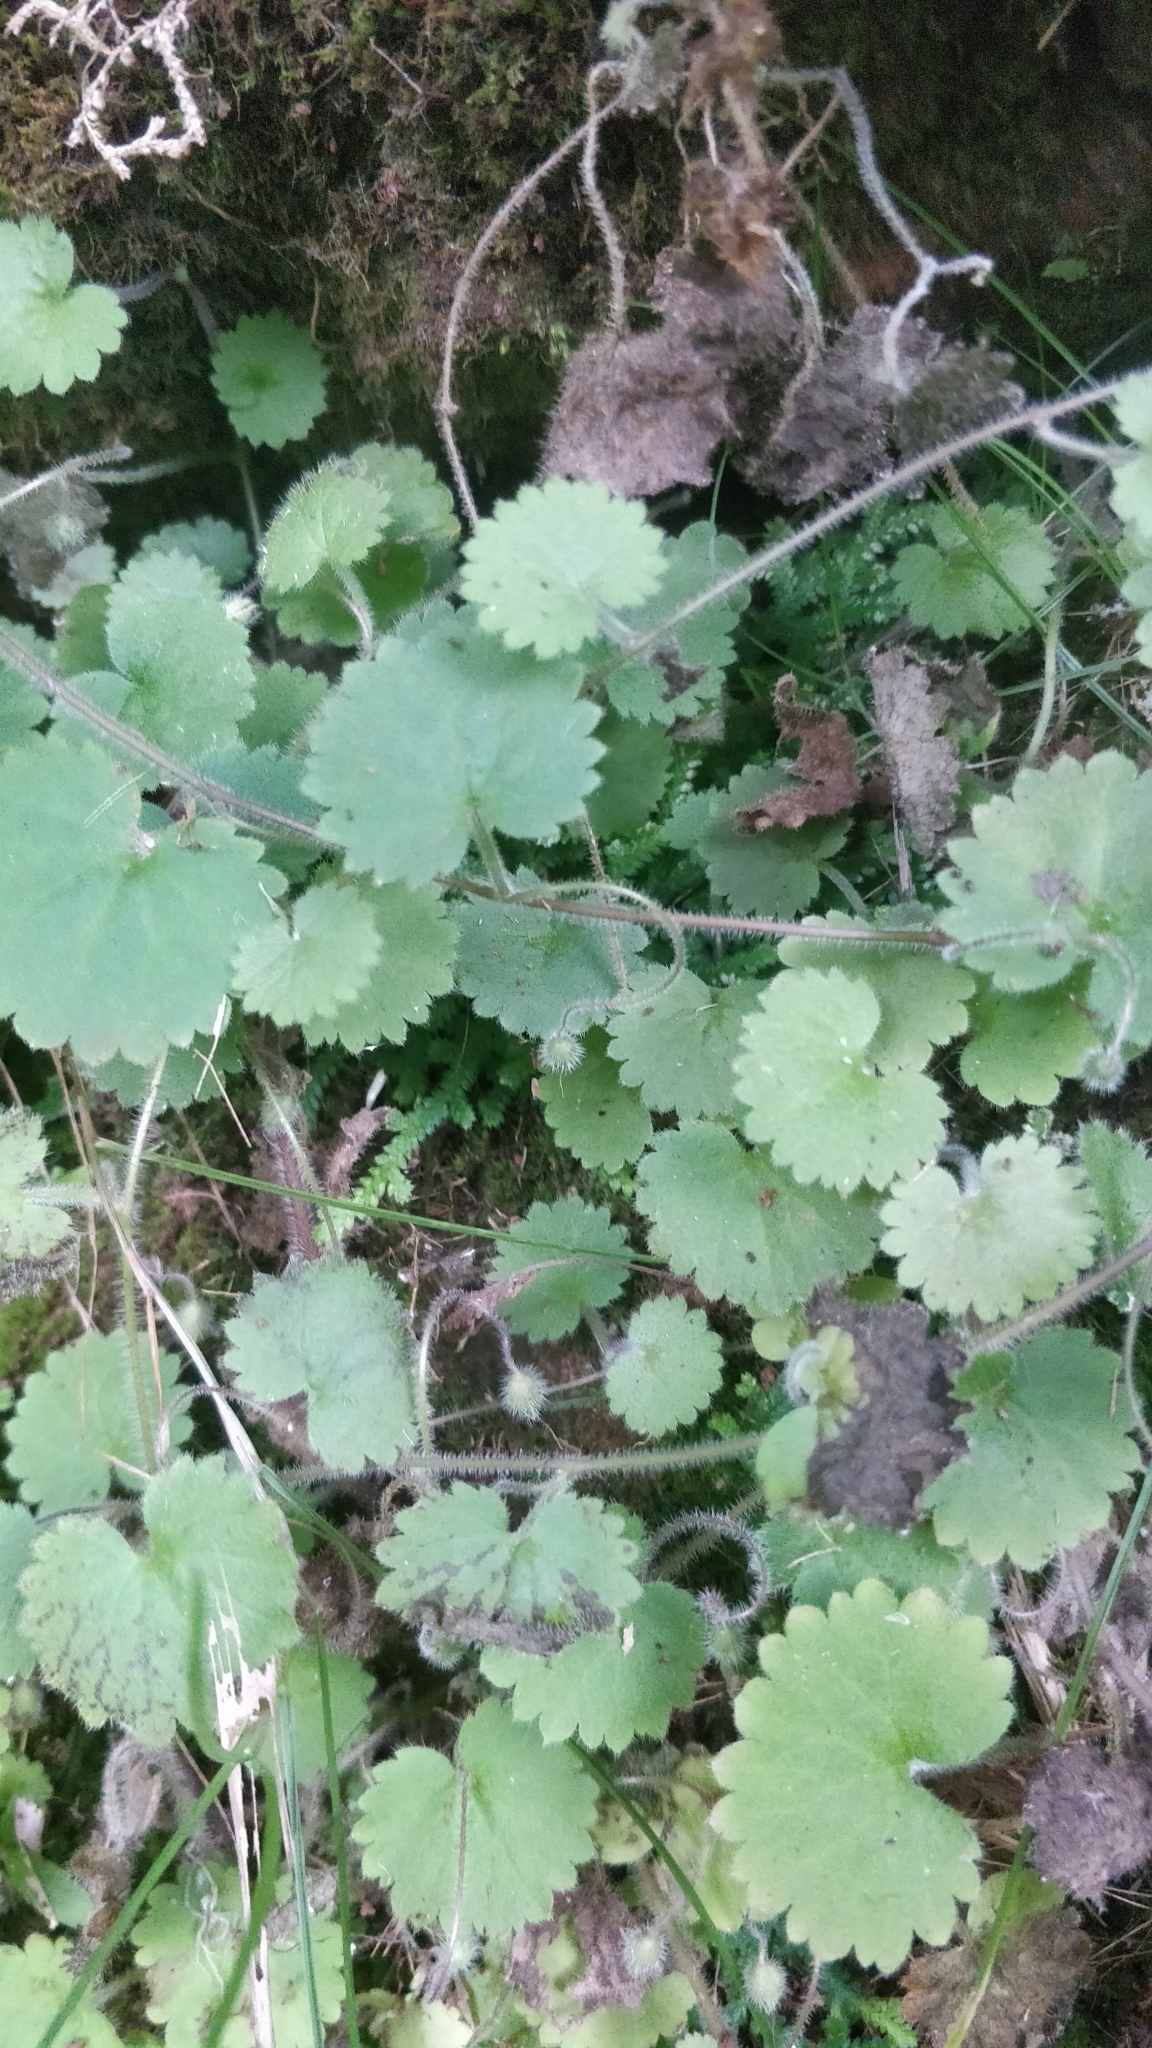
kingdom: Plantae
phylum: Tracheophyta
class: Magnoliopsida
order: Lamiales
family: Plantaginaceae
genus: Sibthorpia
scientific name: Sibthorpia peregrina
